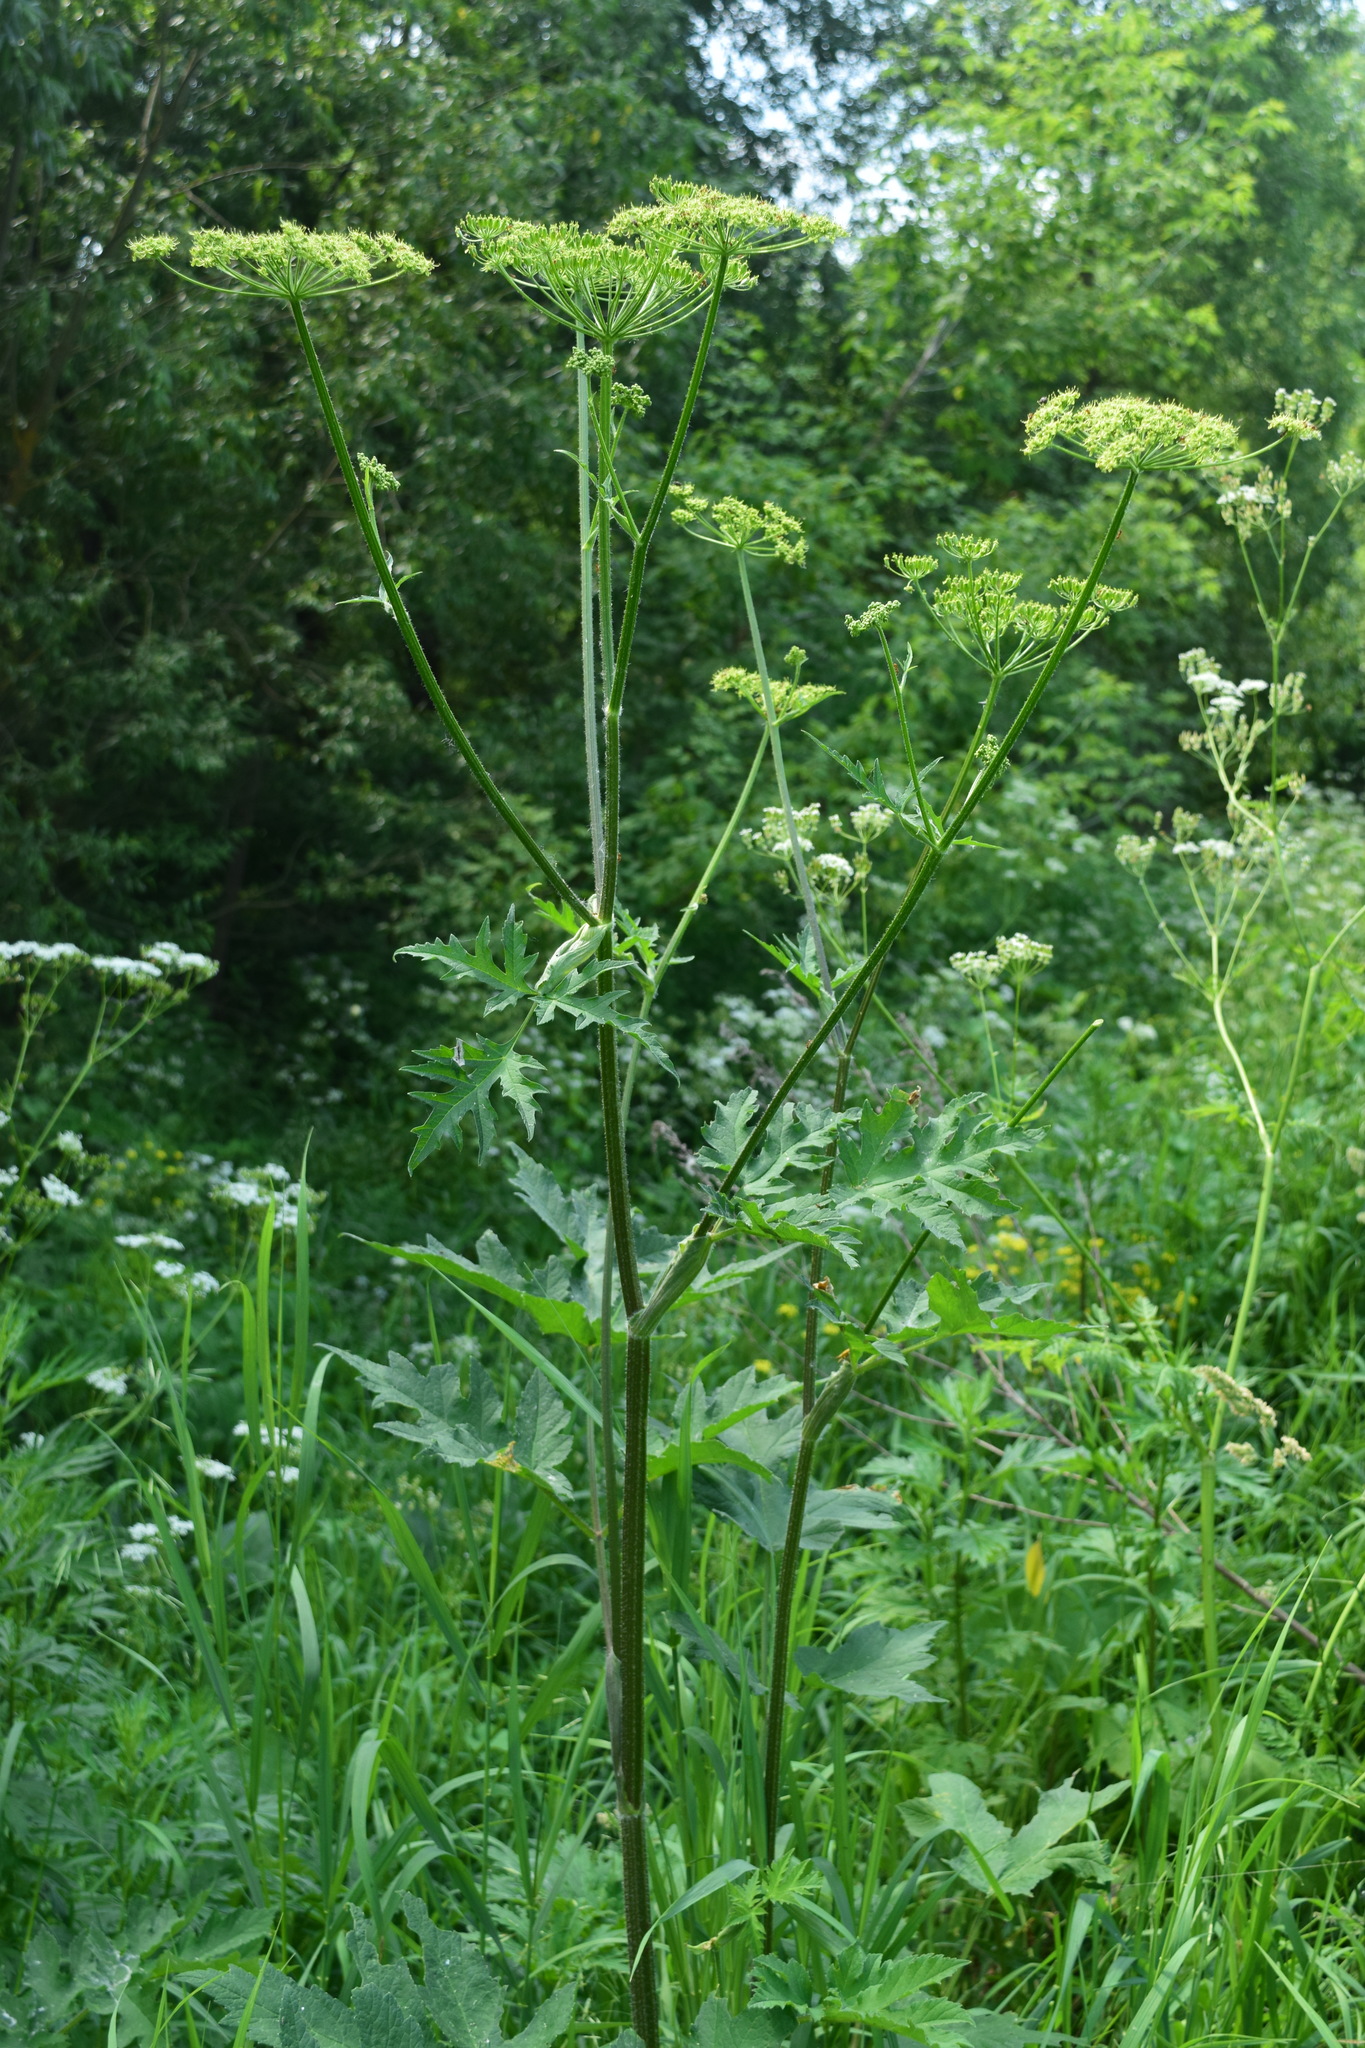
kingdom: Plantae
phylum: Tracheophyta
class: Magnoliopsida
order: Apiales
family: Apiaceae
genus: Heracleum
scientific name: Heracleum sphondylium
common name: Hogweed
